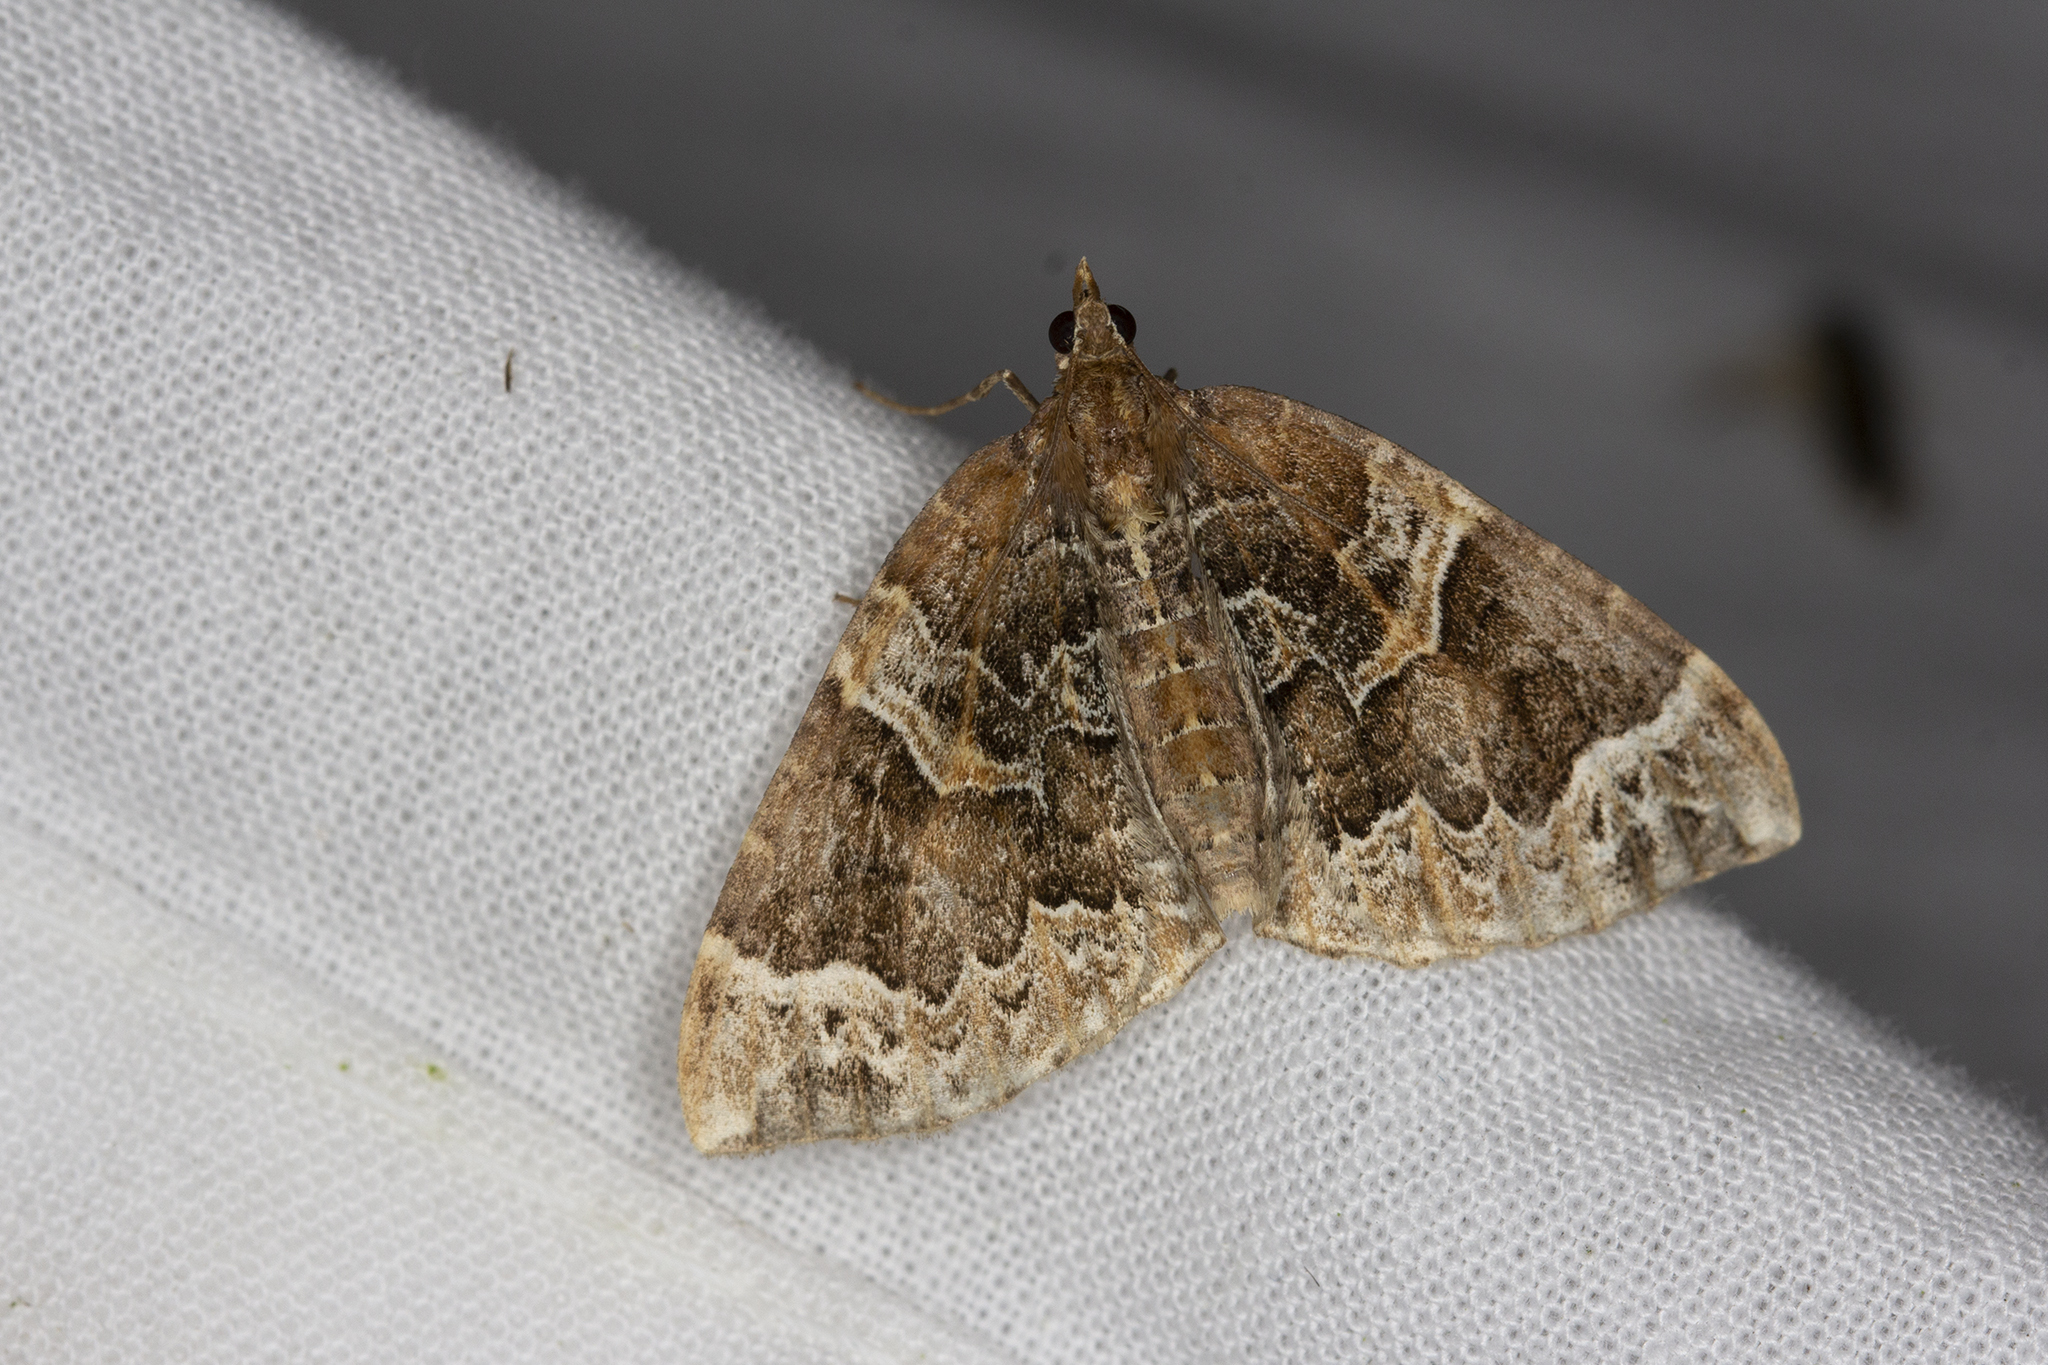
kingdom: Animalia
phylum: Arthropoda
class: Insecta
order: Lepidoptera
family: Geometridae
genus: Eulithis
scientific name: Eulithis prunata
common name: Phoenix
